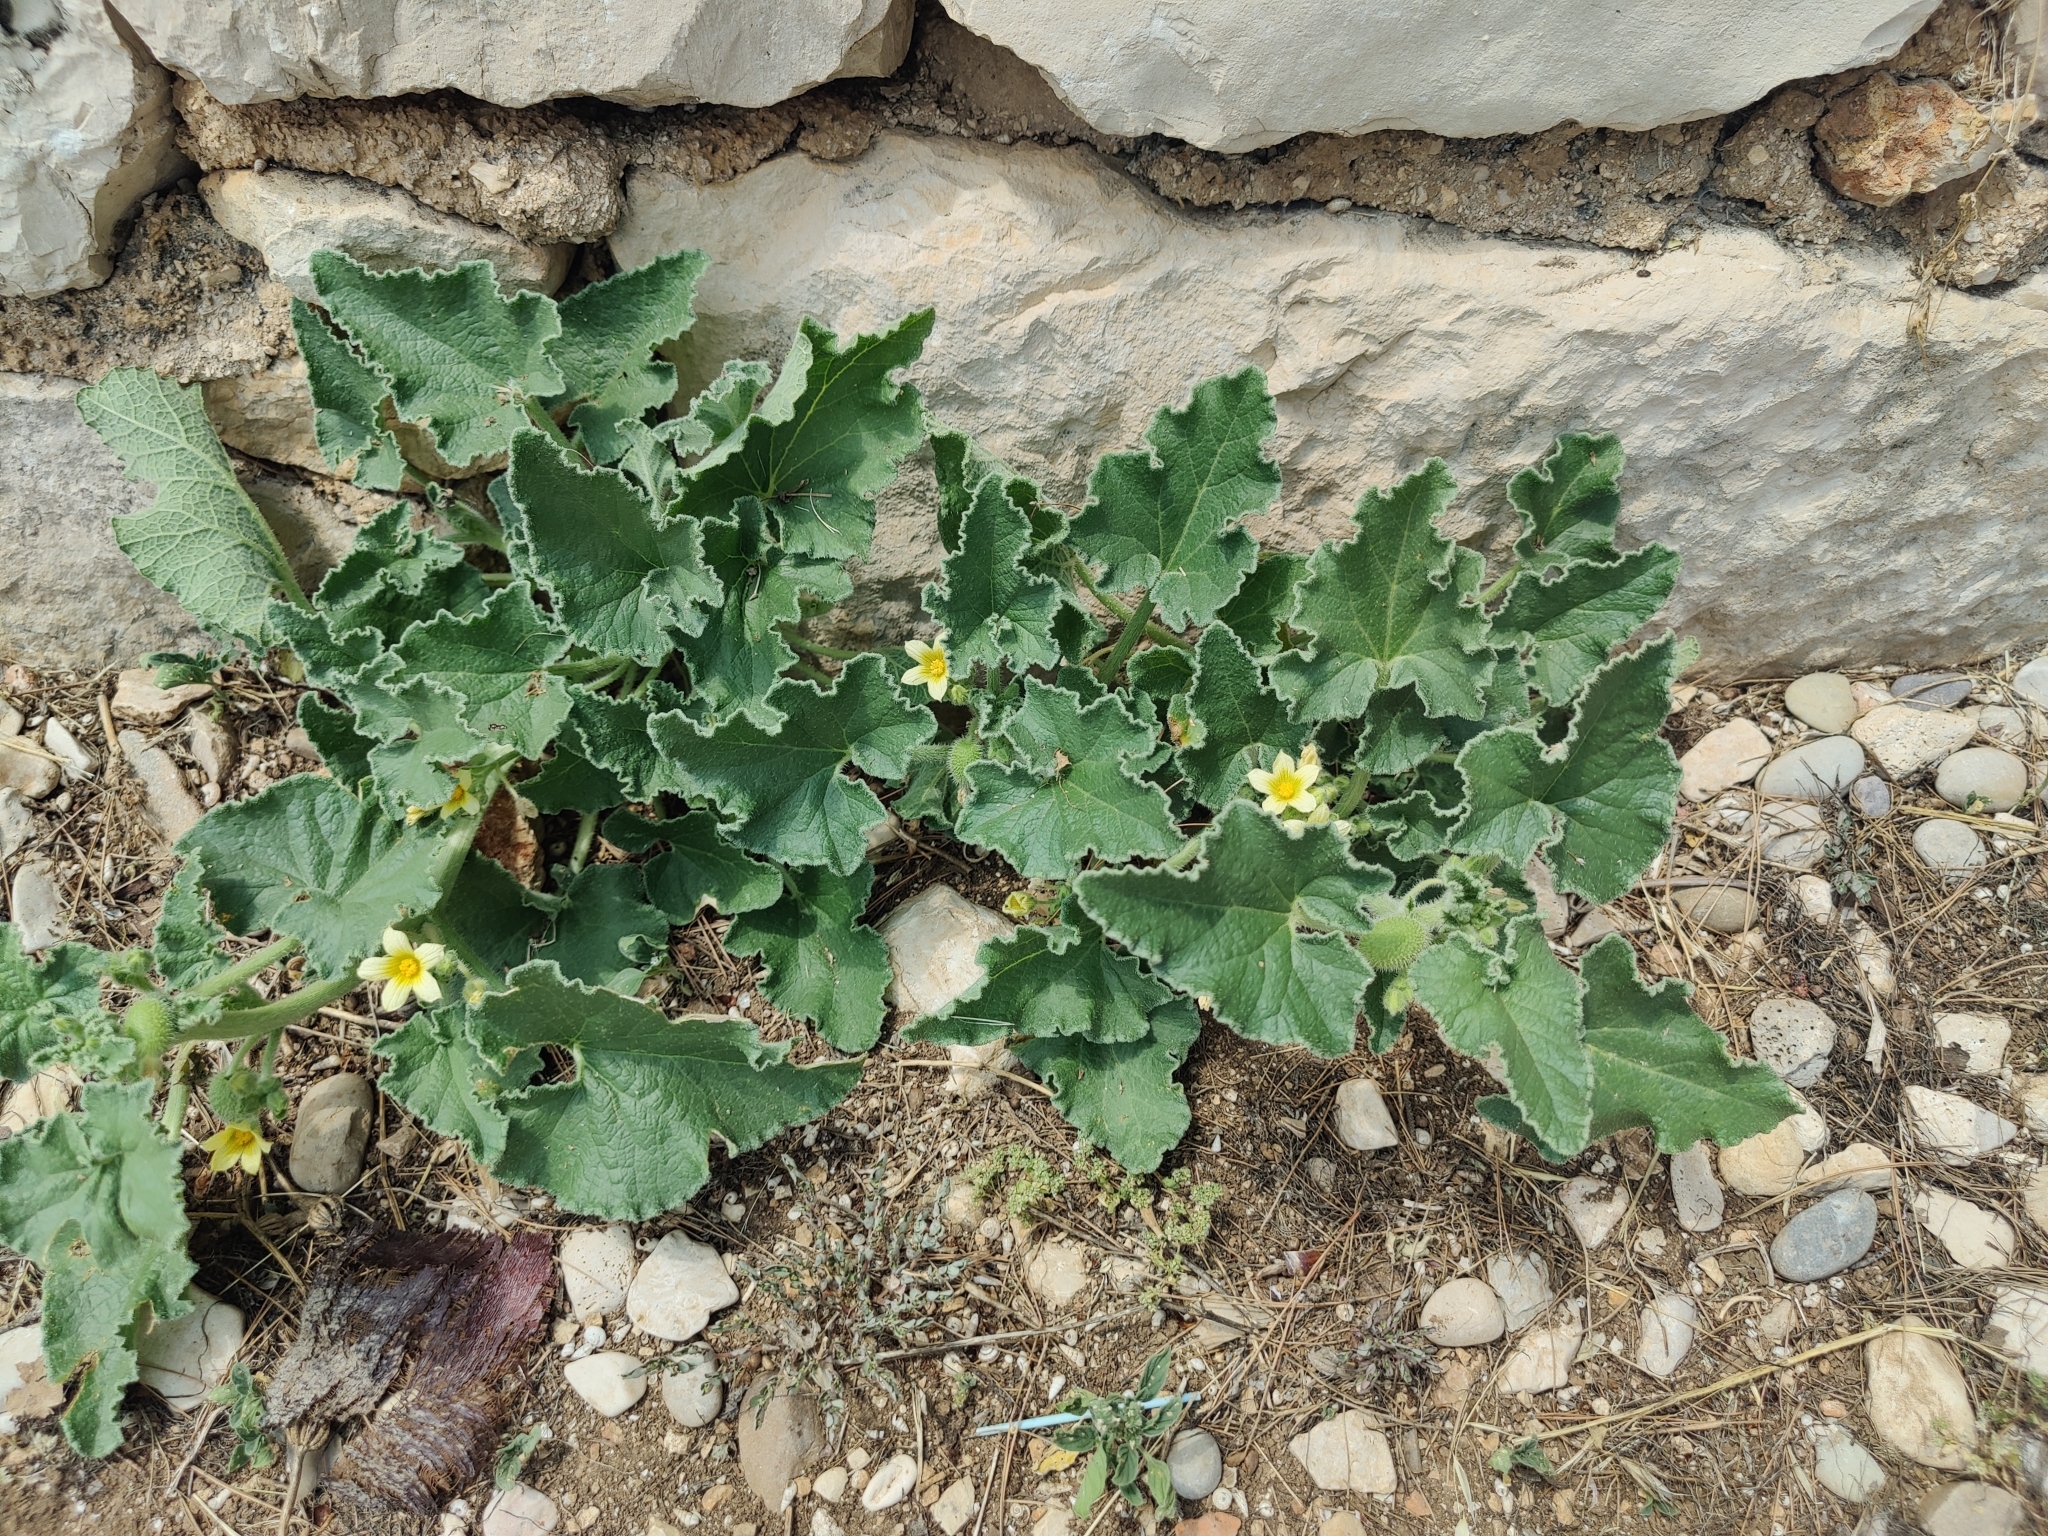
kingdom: Plantae
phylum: Tracheophyta
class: Magnoliopsida
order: Cucurbitales
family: Cucurbitaceae
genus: Ecballium
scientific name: Ecballium elaterium
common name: Squirting cucumber
